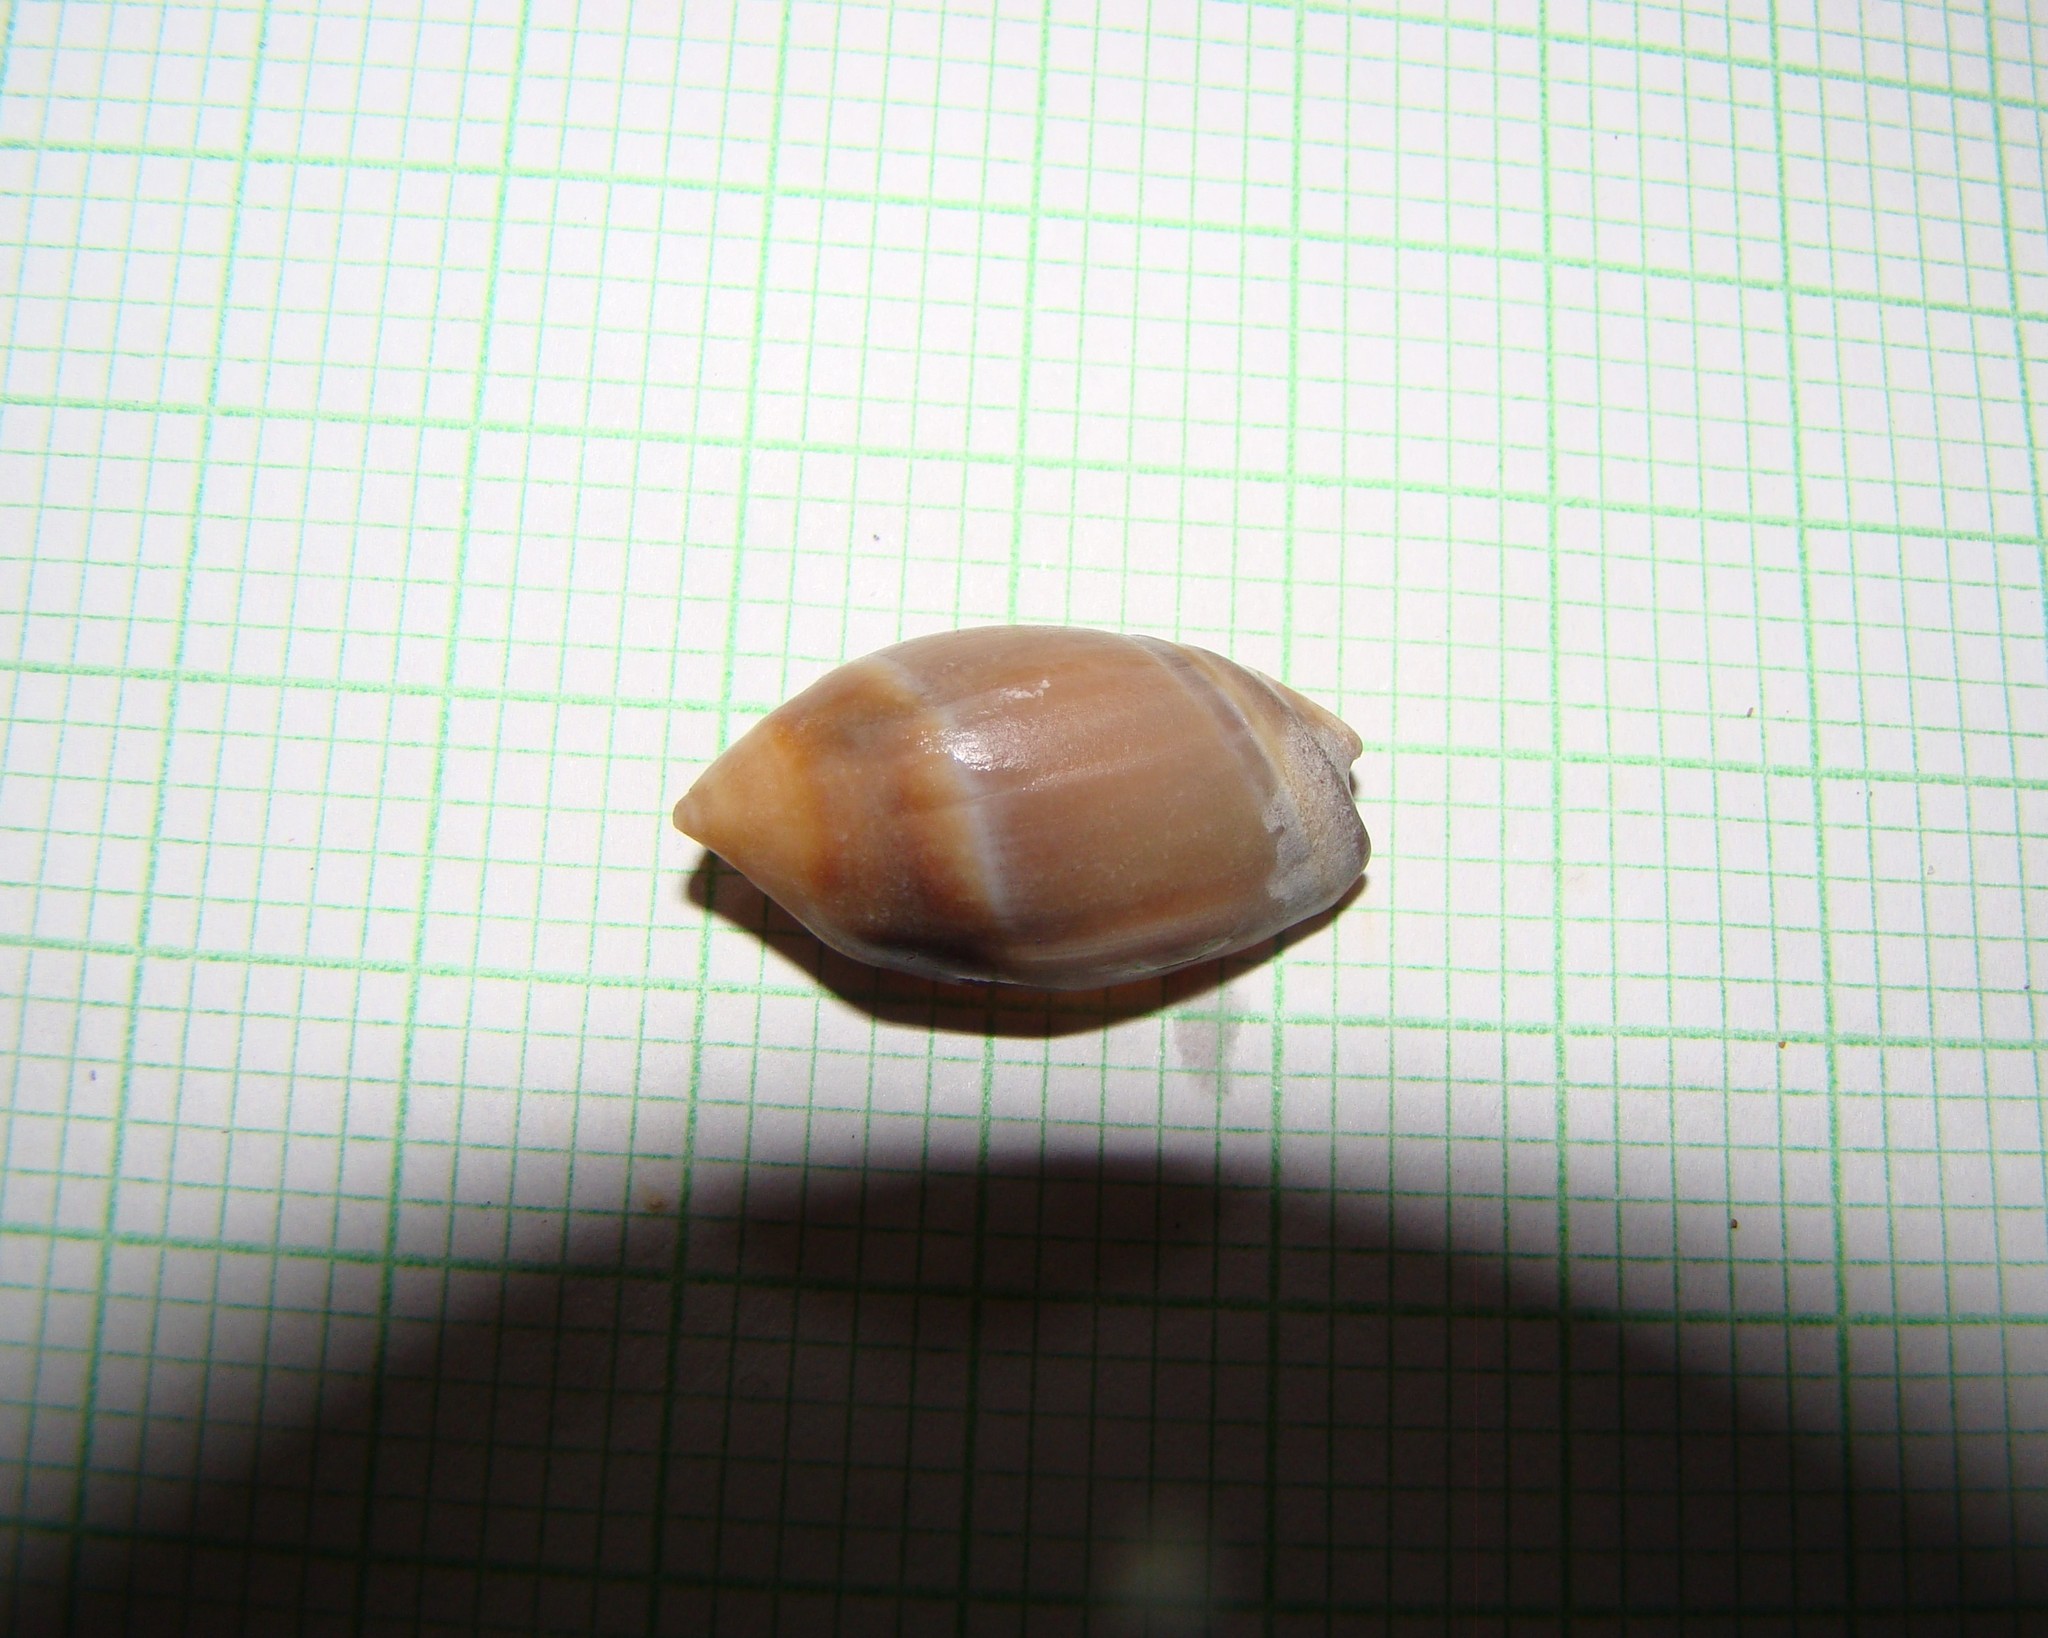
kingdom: Animalia
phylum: Mollusca
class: Gastropoda
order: Neogastropoda
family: Ancillariidae
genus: Amalda
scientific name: Amalda australis
